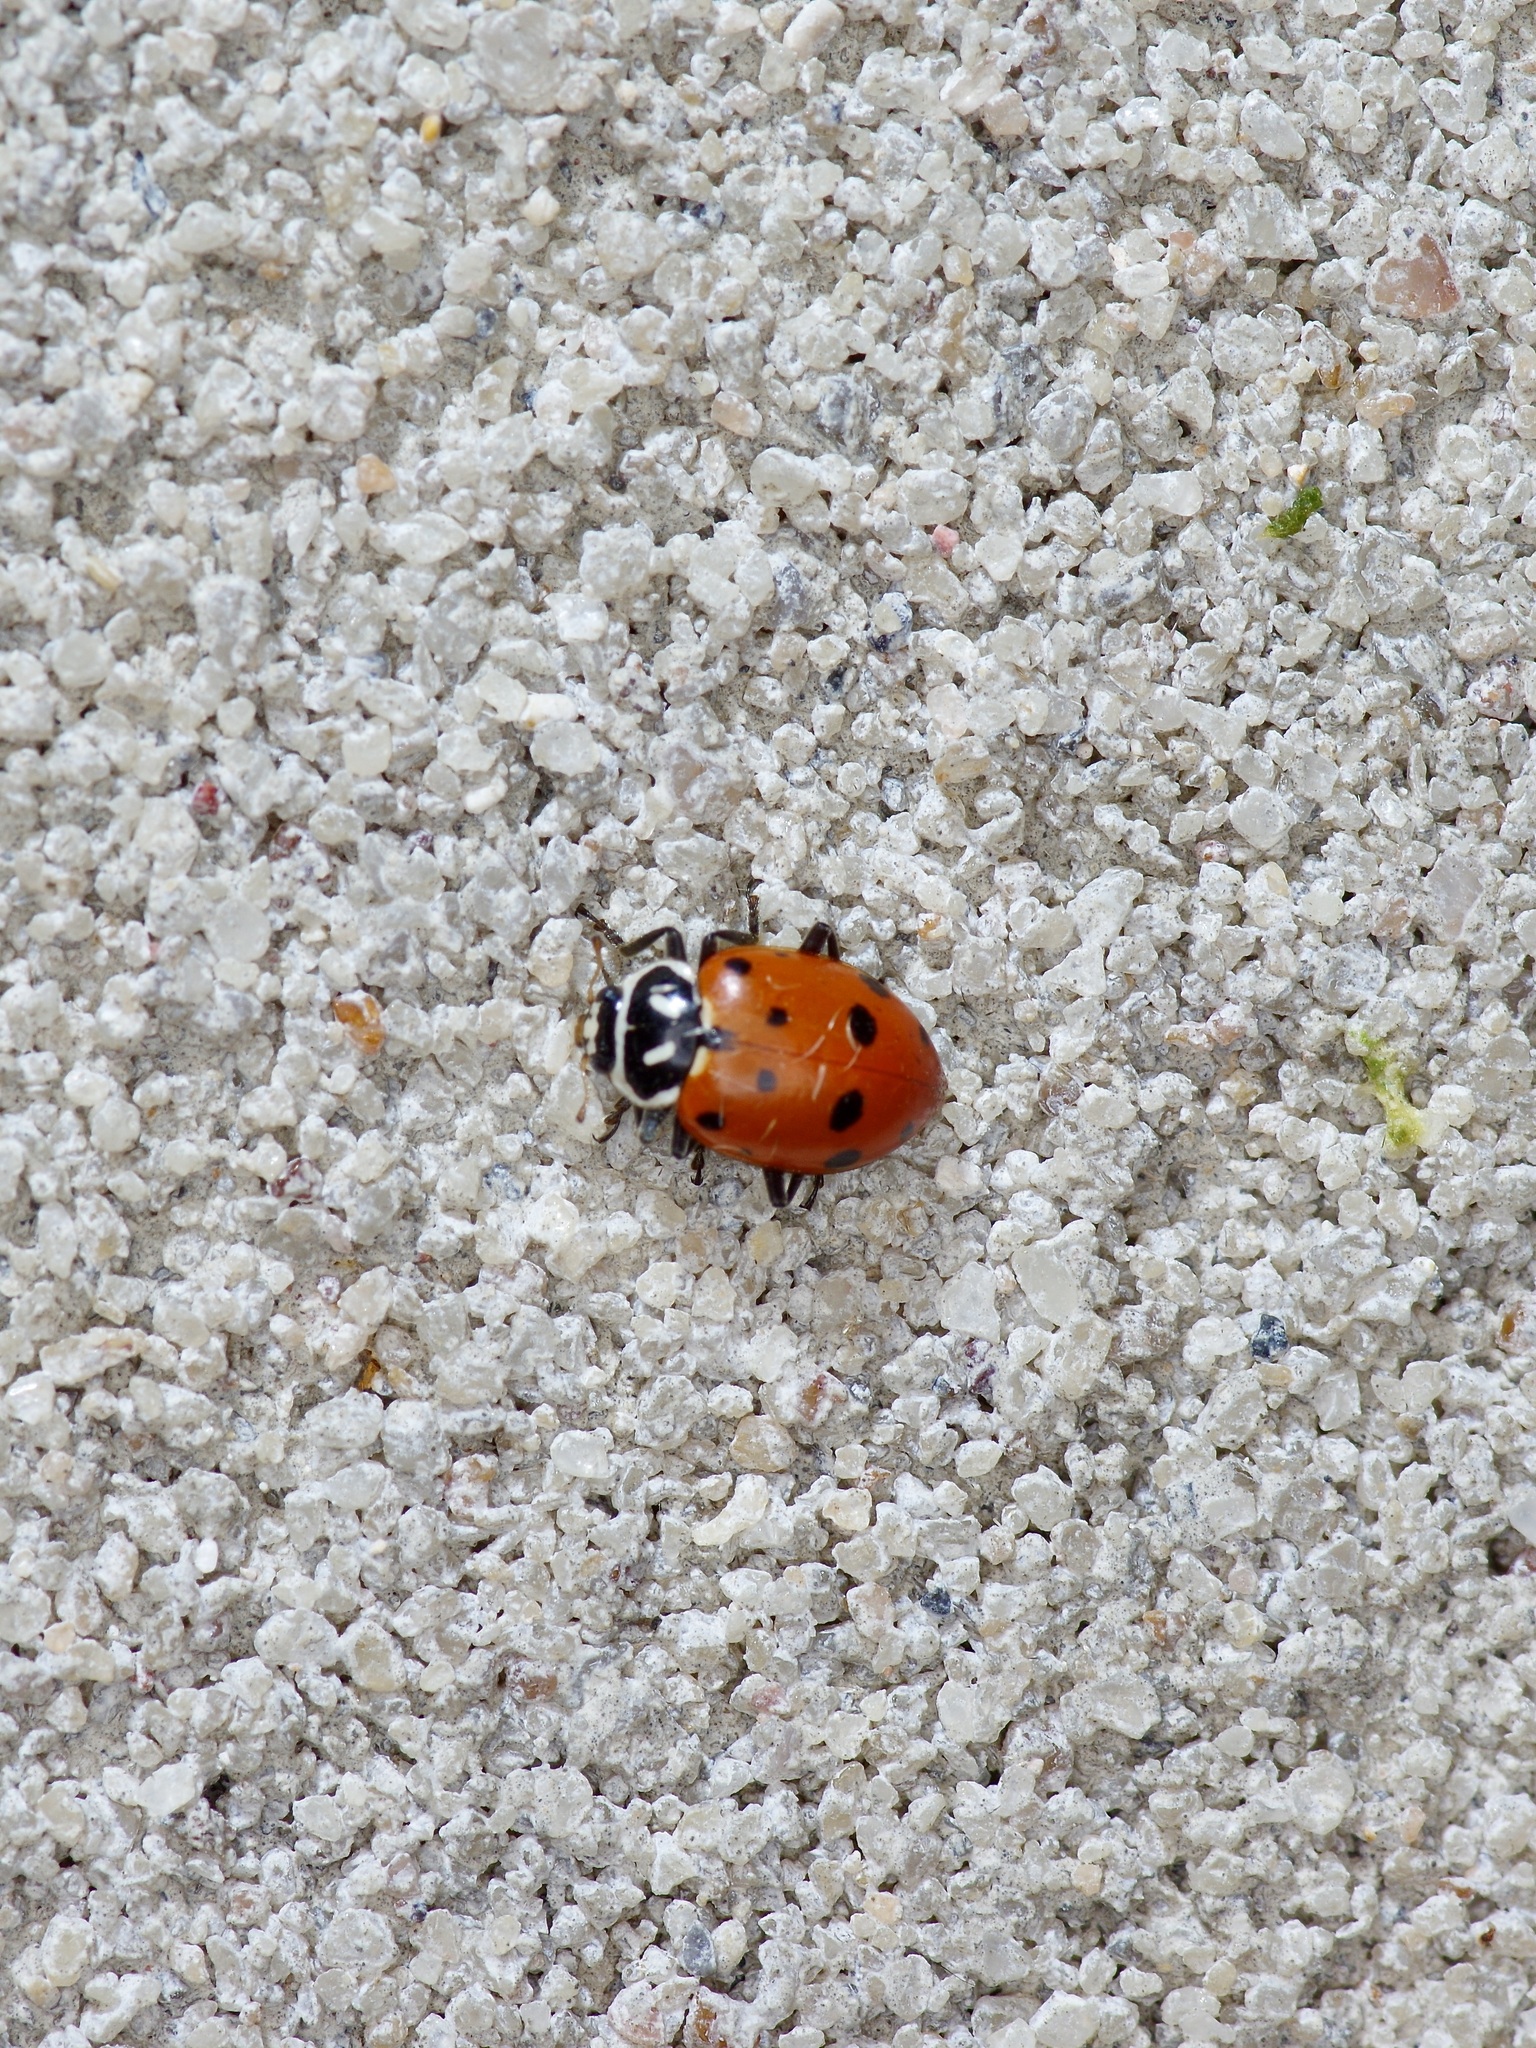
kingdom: Animalia
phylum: Arthropoda
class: Insecta
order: Coleoptera
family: Coccinellidae
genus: Hippodamia
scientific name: Hippodamia convergens
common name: Convergent lady beetle
